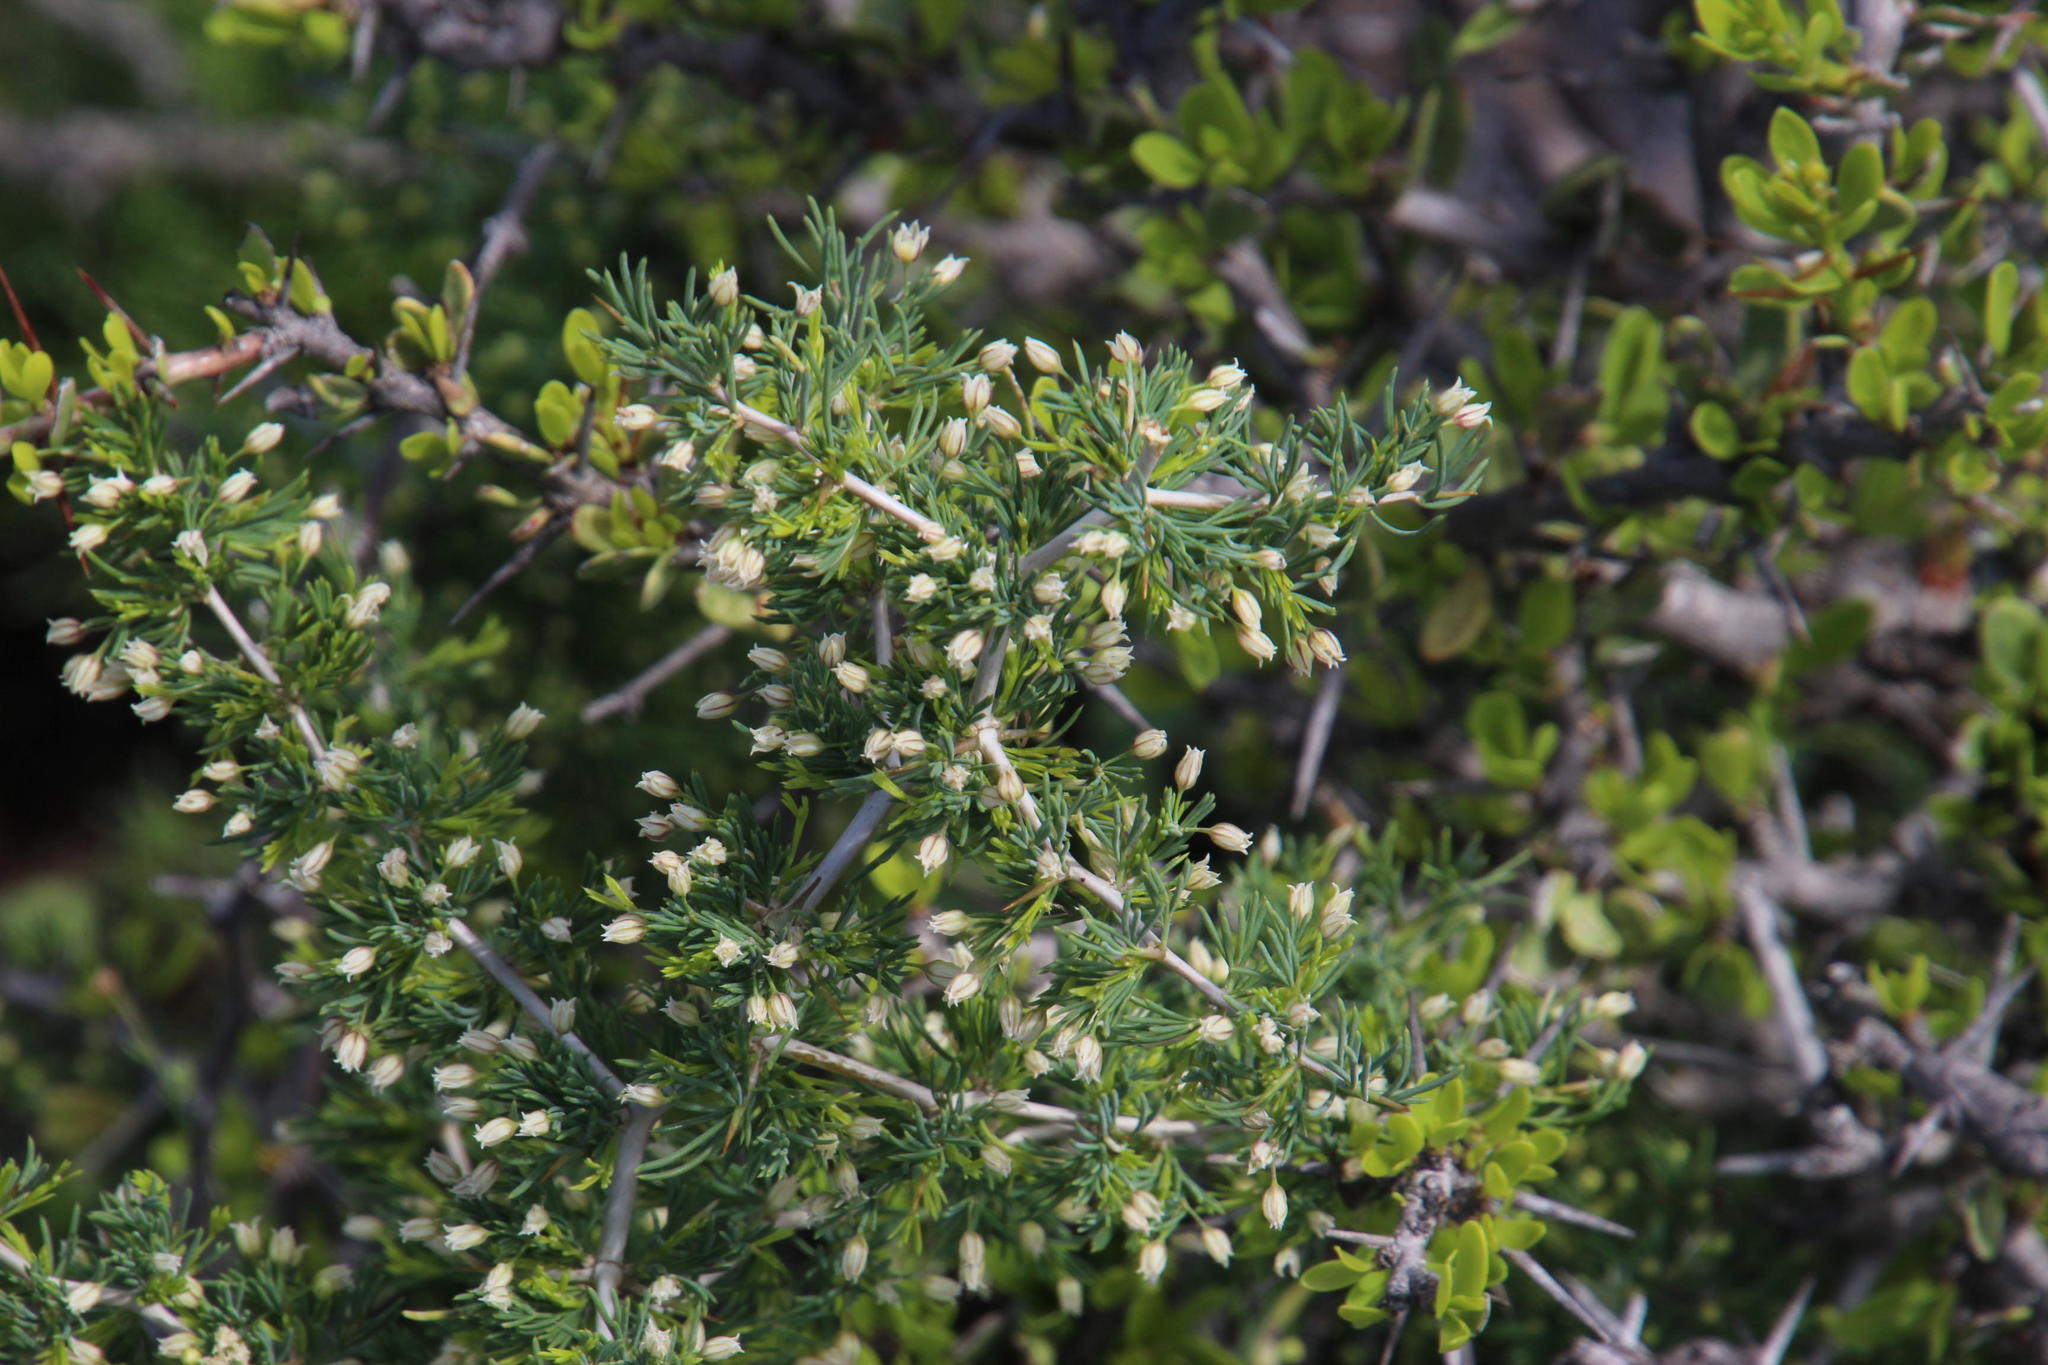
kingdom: Plantae
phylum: Tracheophyta
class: Liliopsida
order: Asparagales
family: Asparagaceae
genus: Asparagus
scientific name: Asparagus suaveolens
